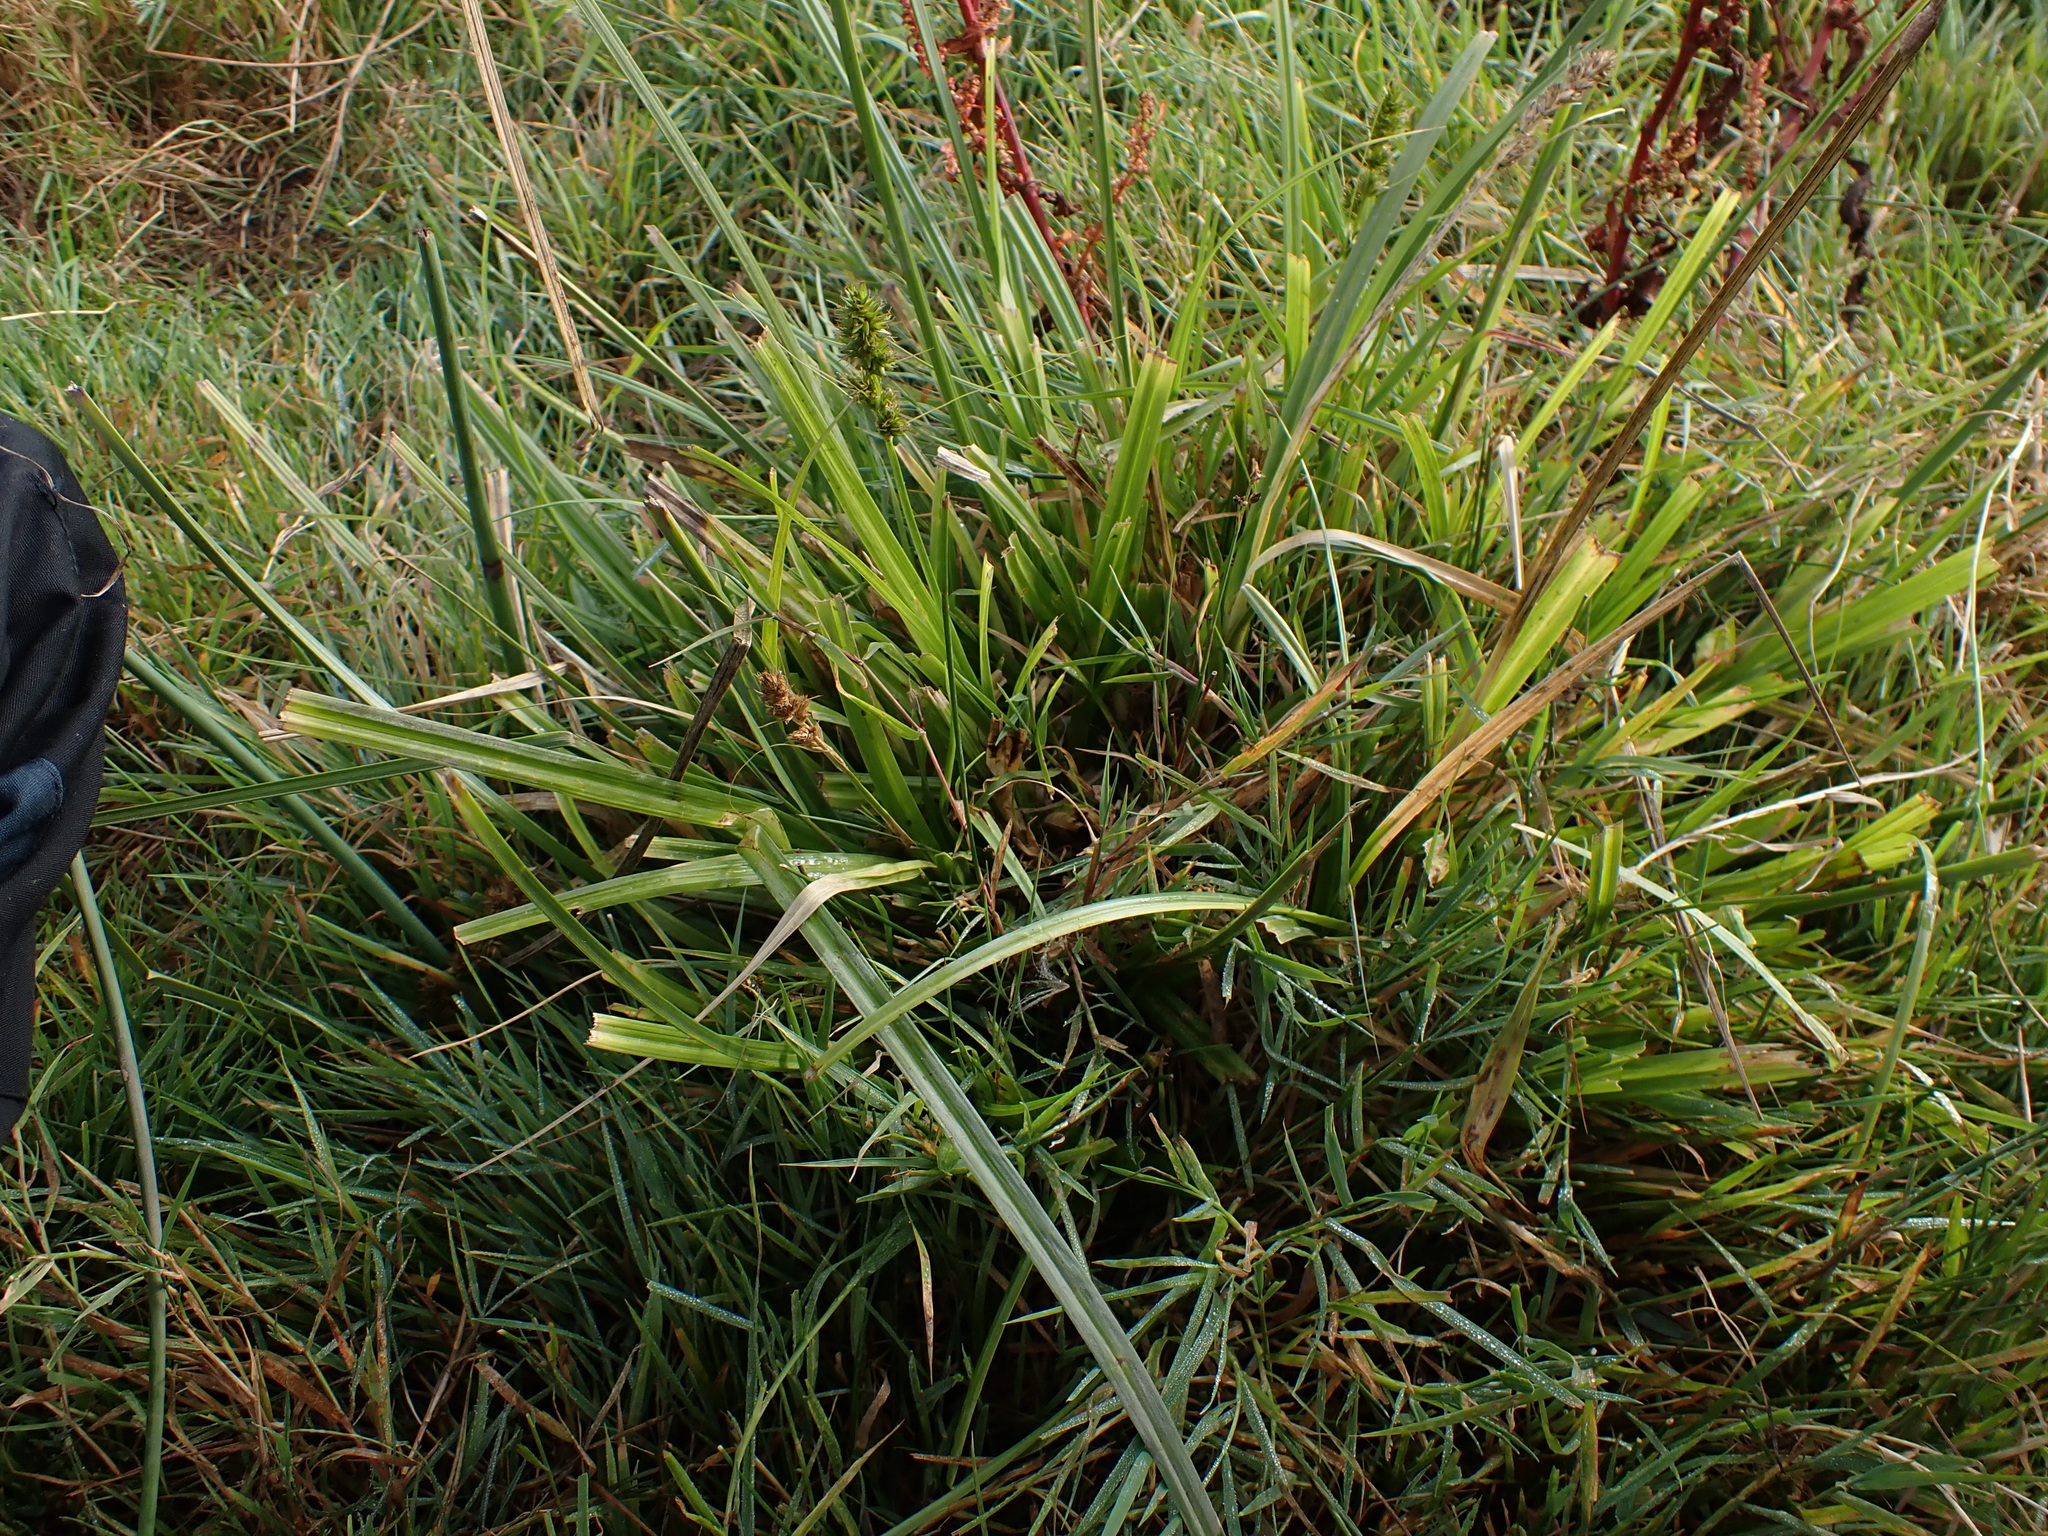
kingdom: Plantae
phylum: Tracheophyta
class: Liliopsida
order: Poales
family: Cyperaceae
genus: Carex
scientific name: Carex otrubae
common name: False fox-sedge
